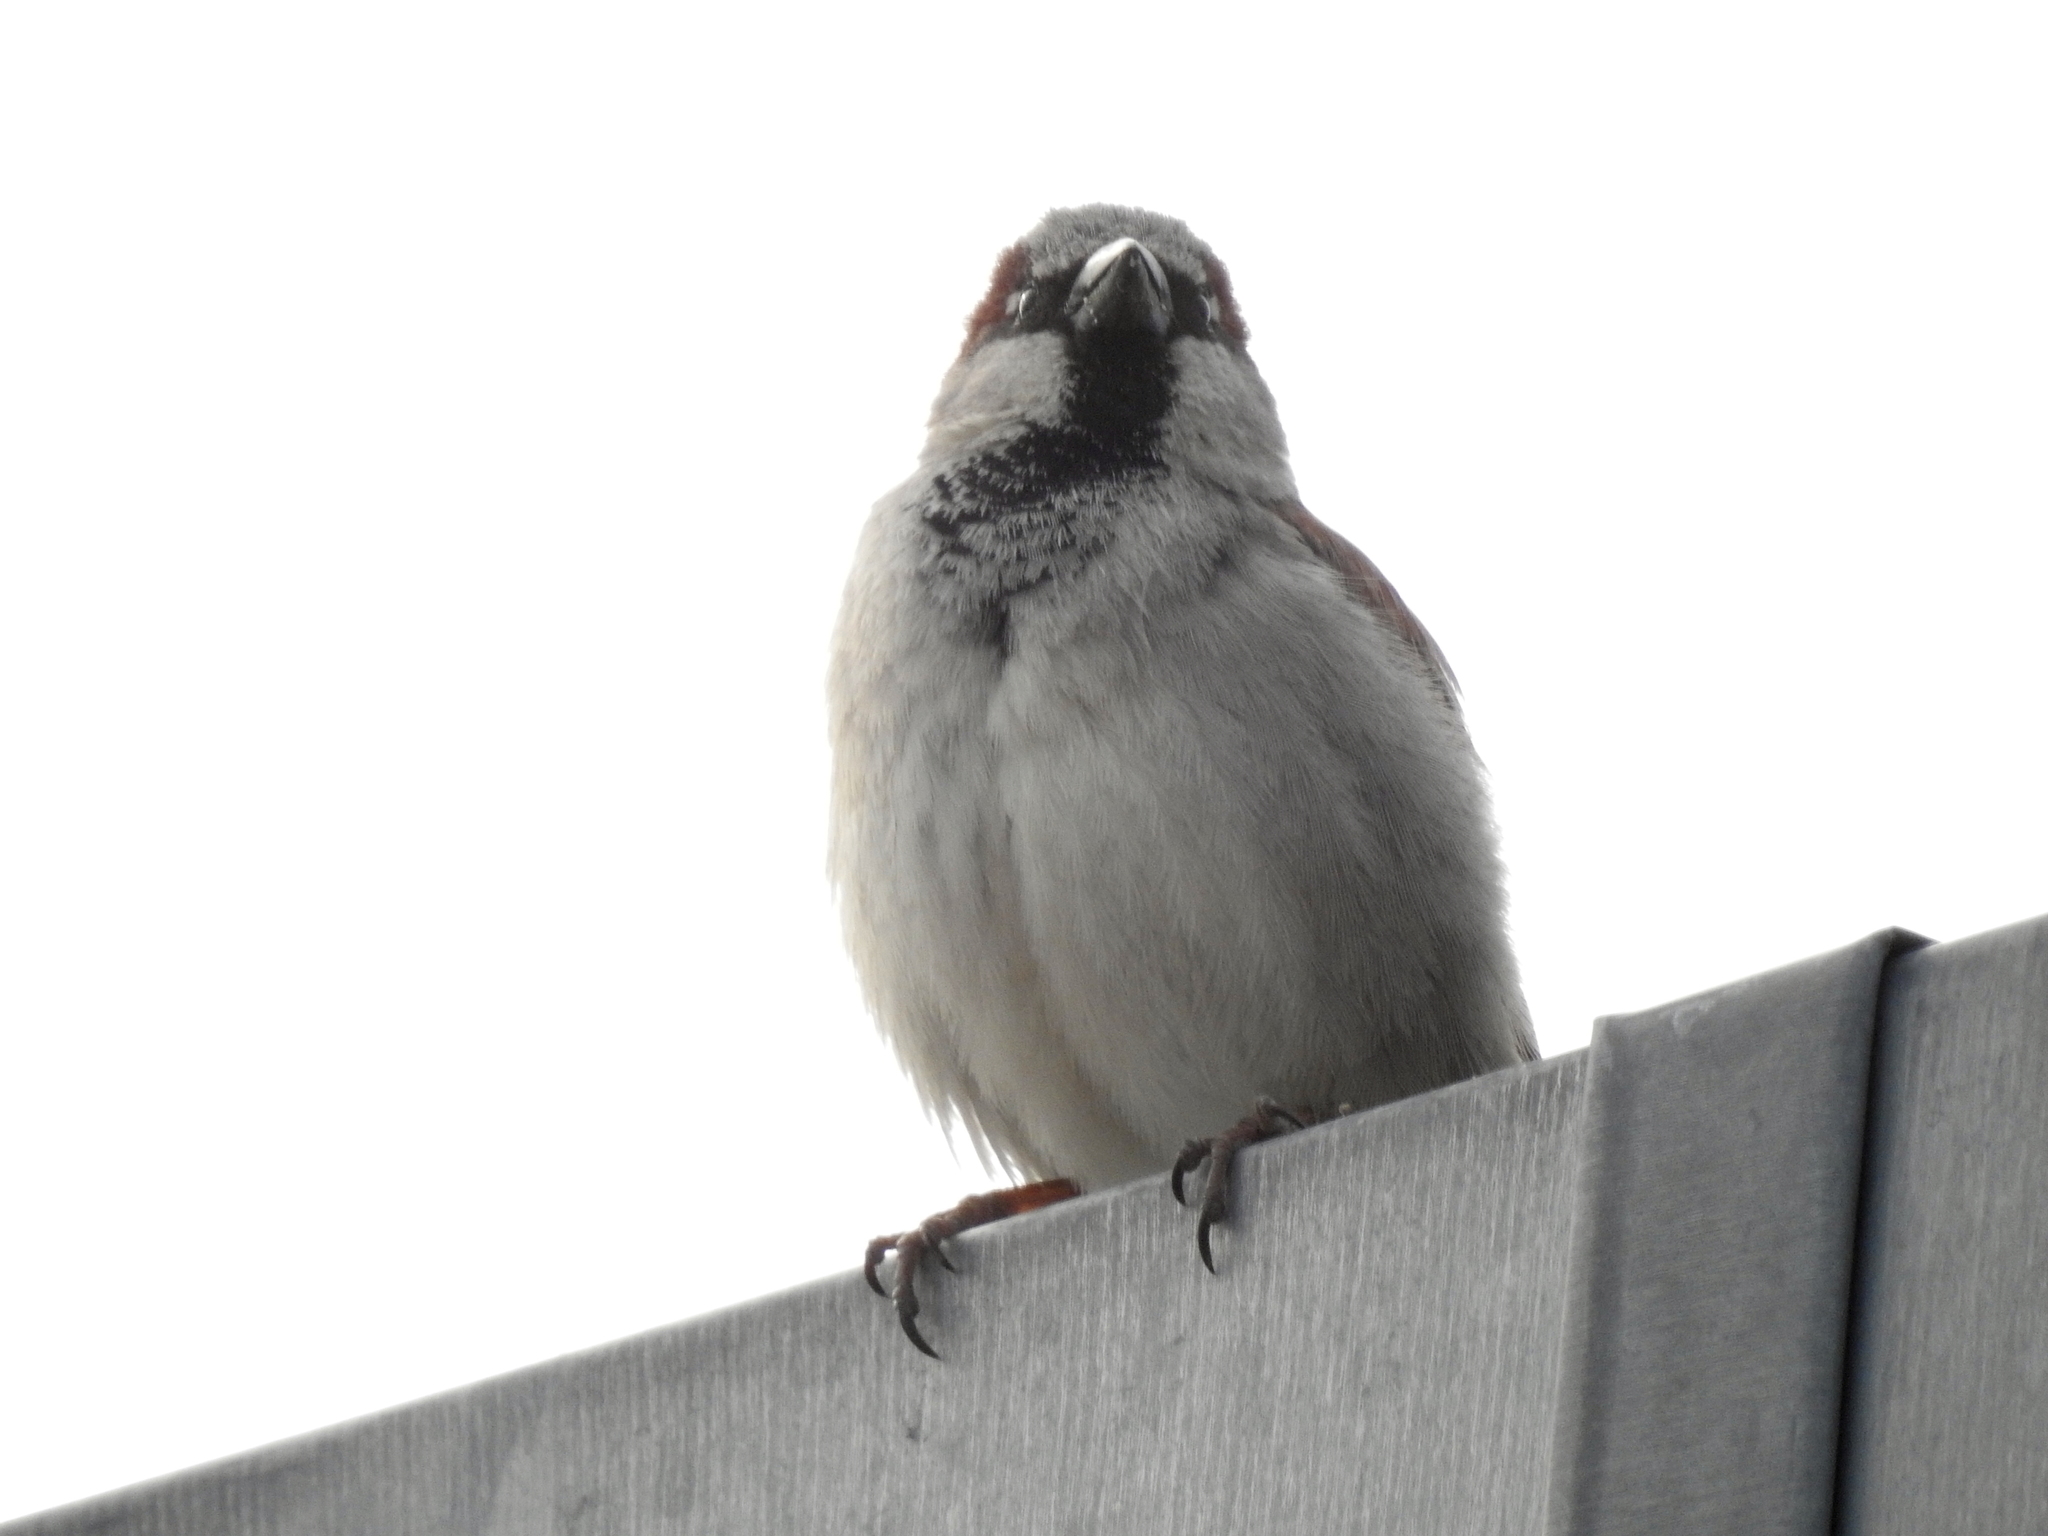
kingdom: Animalia
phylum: Chordata
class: Aves
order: Passeriformes
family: Passeridae
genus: Passer
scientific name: Passer domesticus
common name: House sparrow
